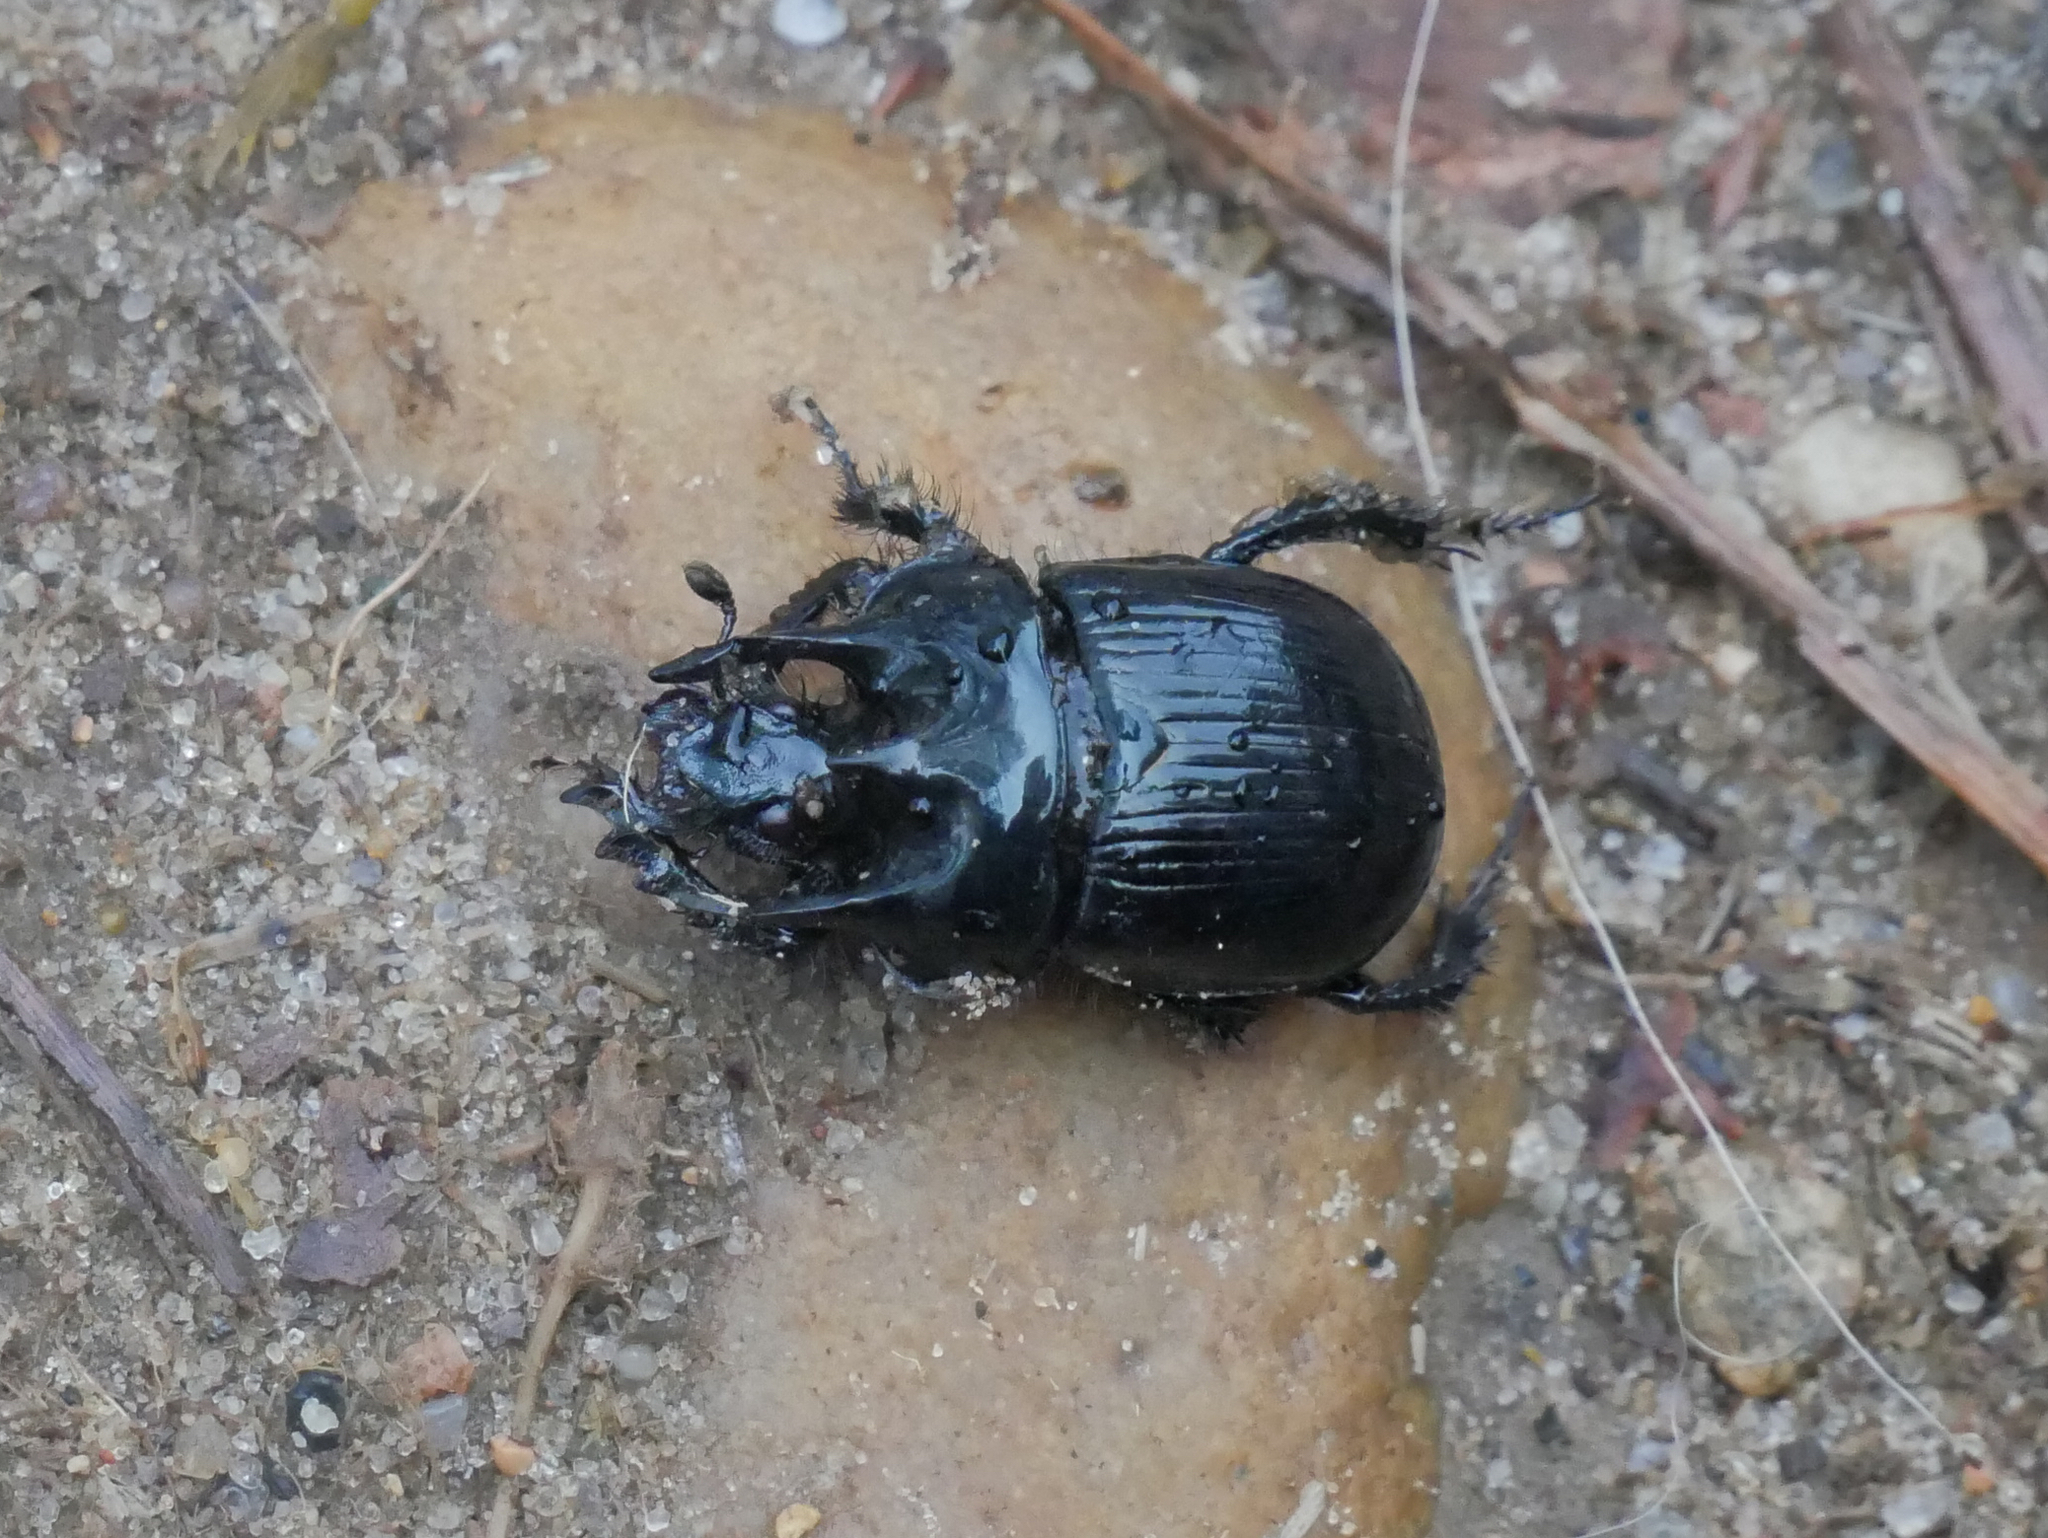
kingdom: Animalia
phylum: Arthropoda
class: Insecta
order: Coleoptera
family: Geotrupidae
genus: Typhaeus
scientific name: Typhaeus typhoeus
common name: Minotaur beetle
